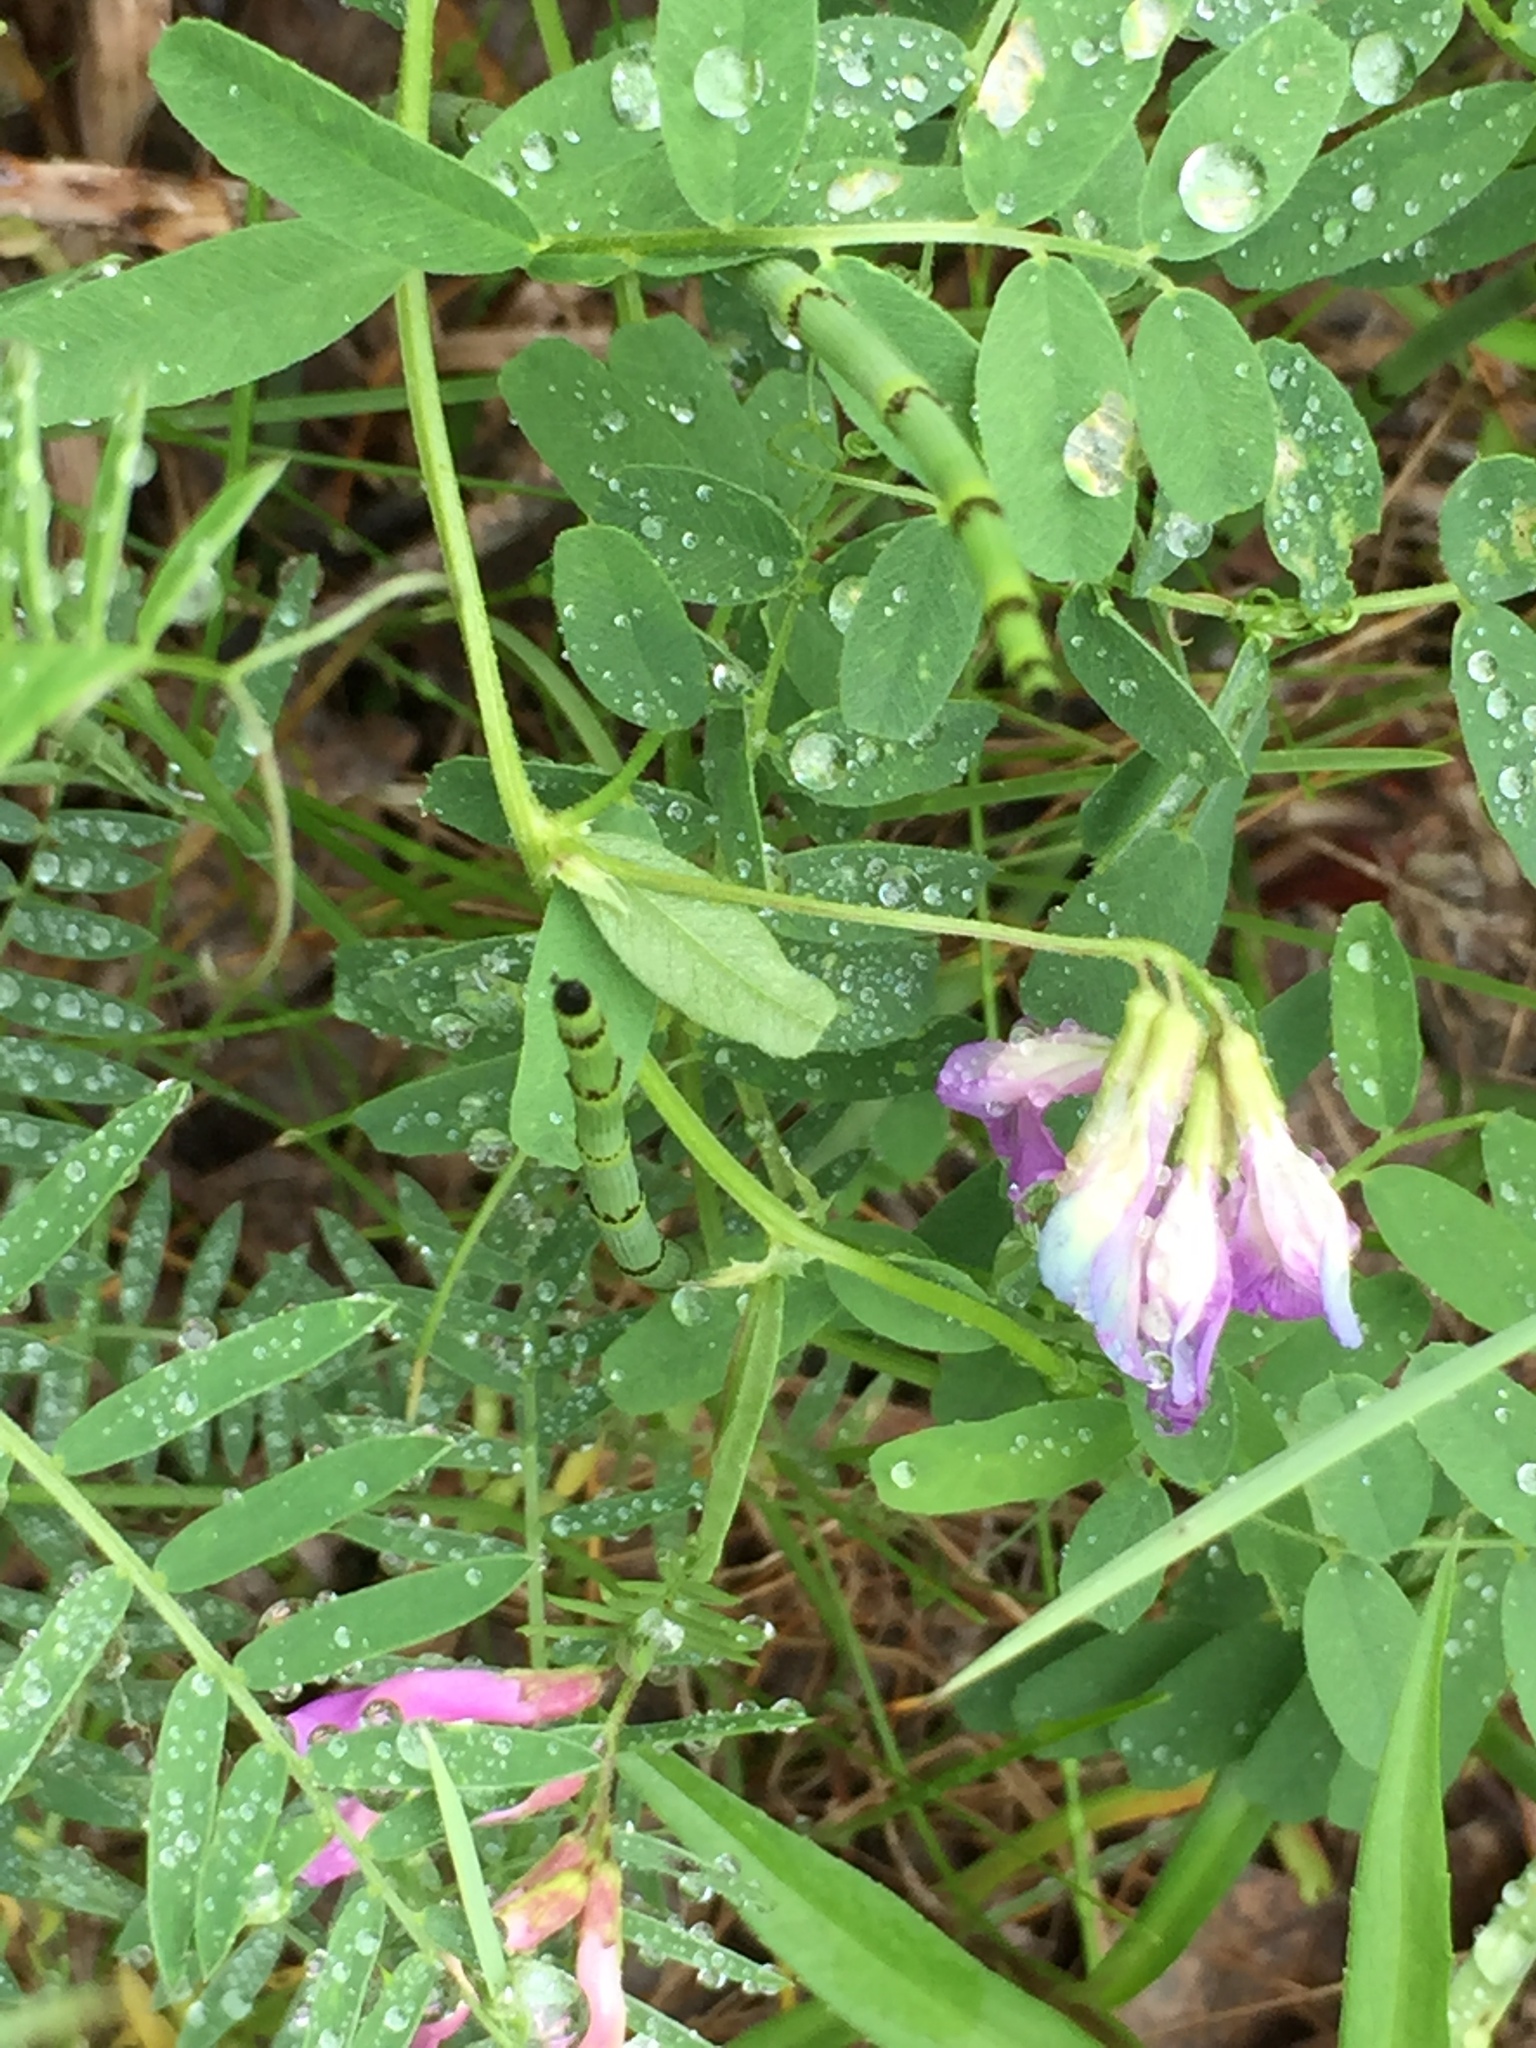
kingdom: Plantae
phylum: Tracheophyta
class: Magnoliopsida
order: Fabales
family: Fabaceae
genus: Vicia
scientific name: Vicia americana
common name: American vetch
